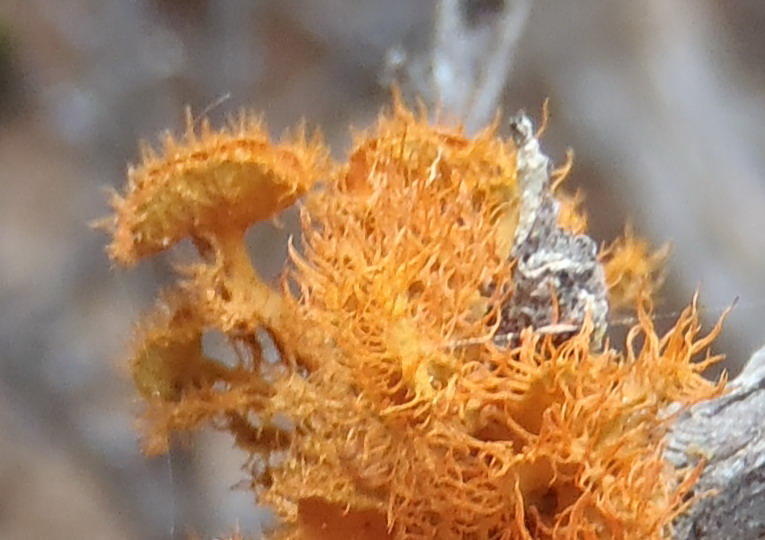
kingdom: Fungi
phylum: Ascomycota
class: Lecanoromycetes
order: Teloschistales
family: Teloschistaceae
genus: Niorma
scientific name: Niorma chrysophthalma
